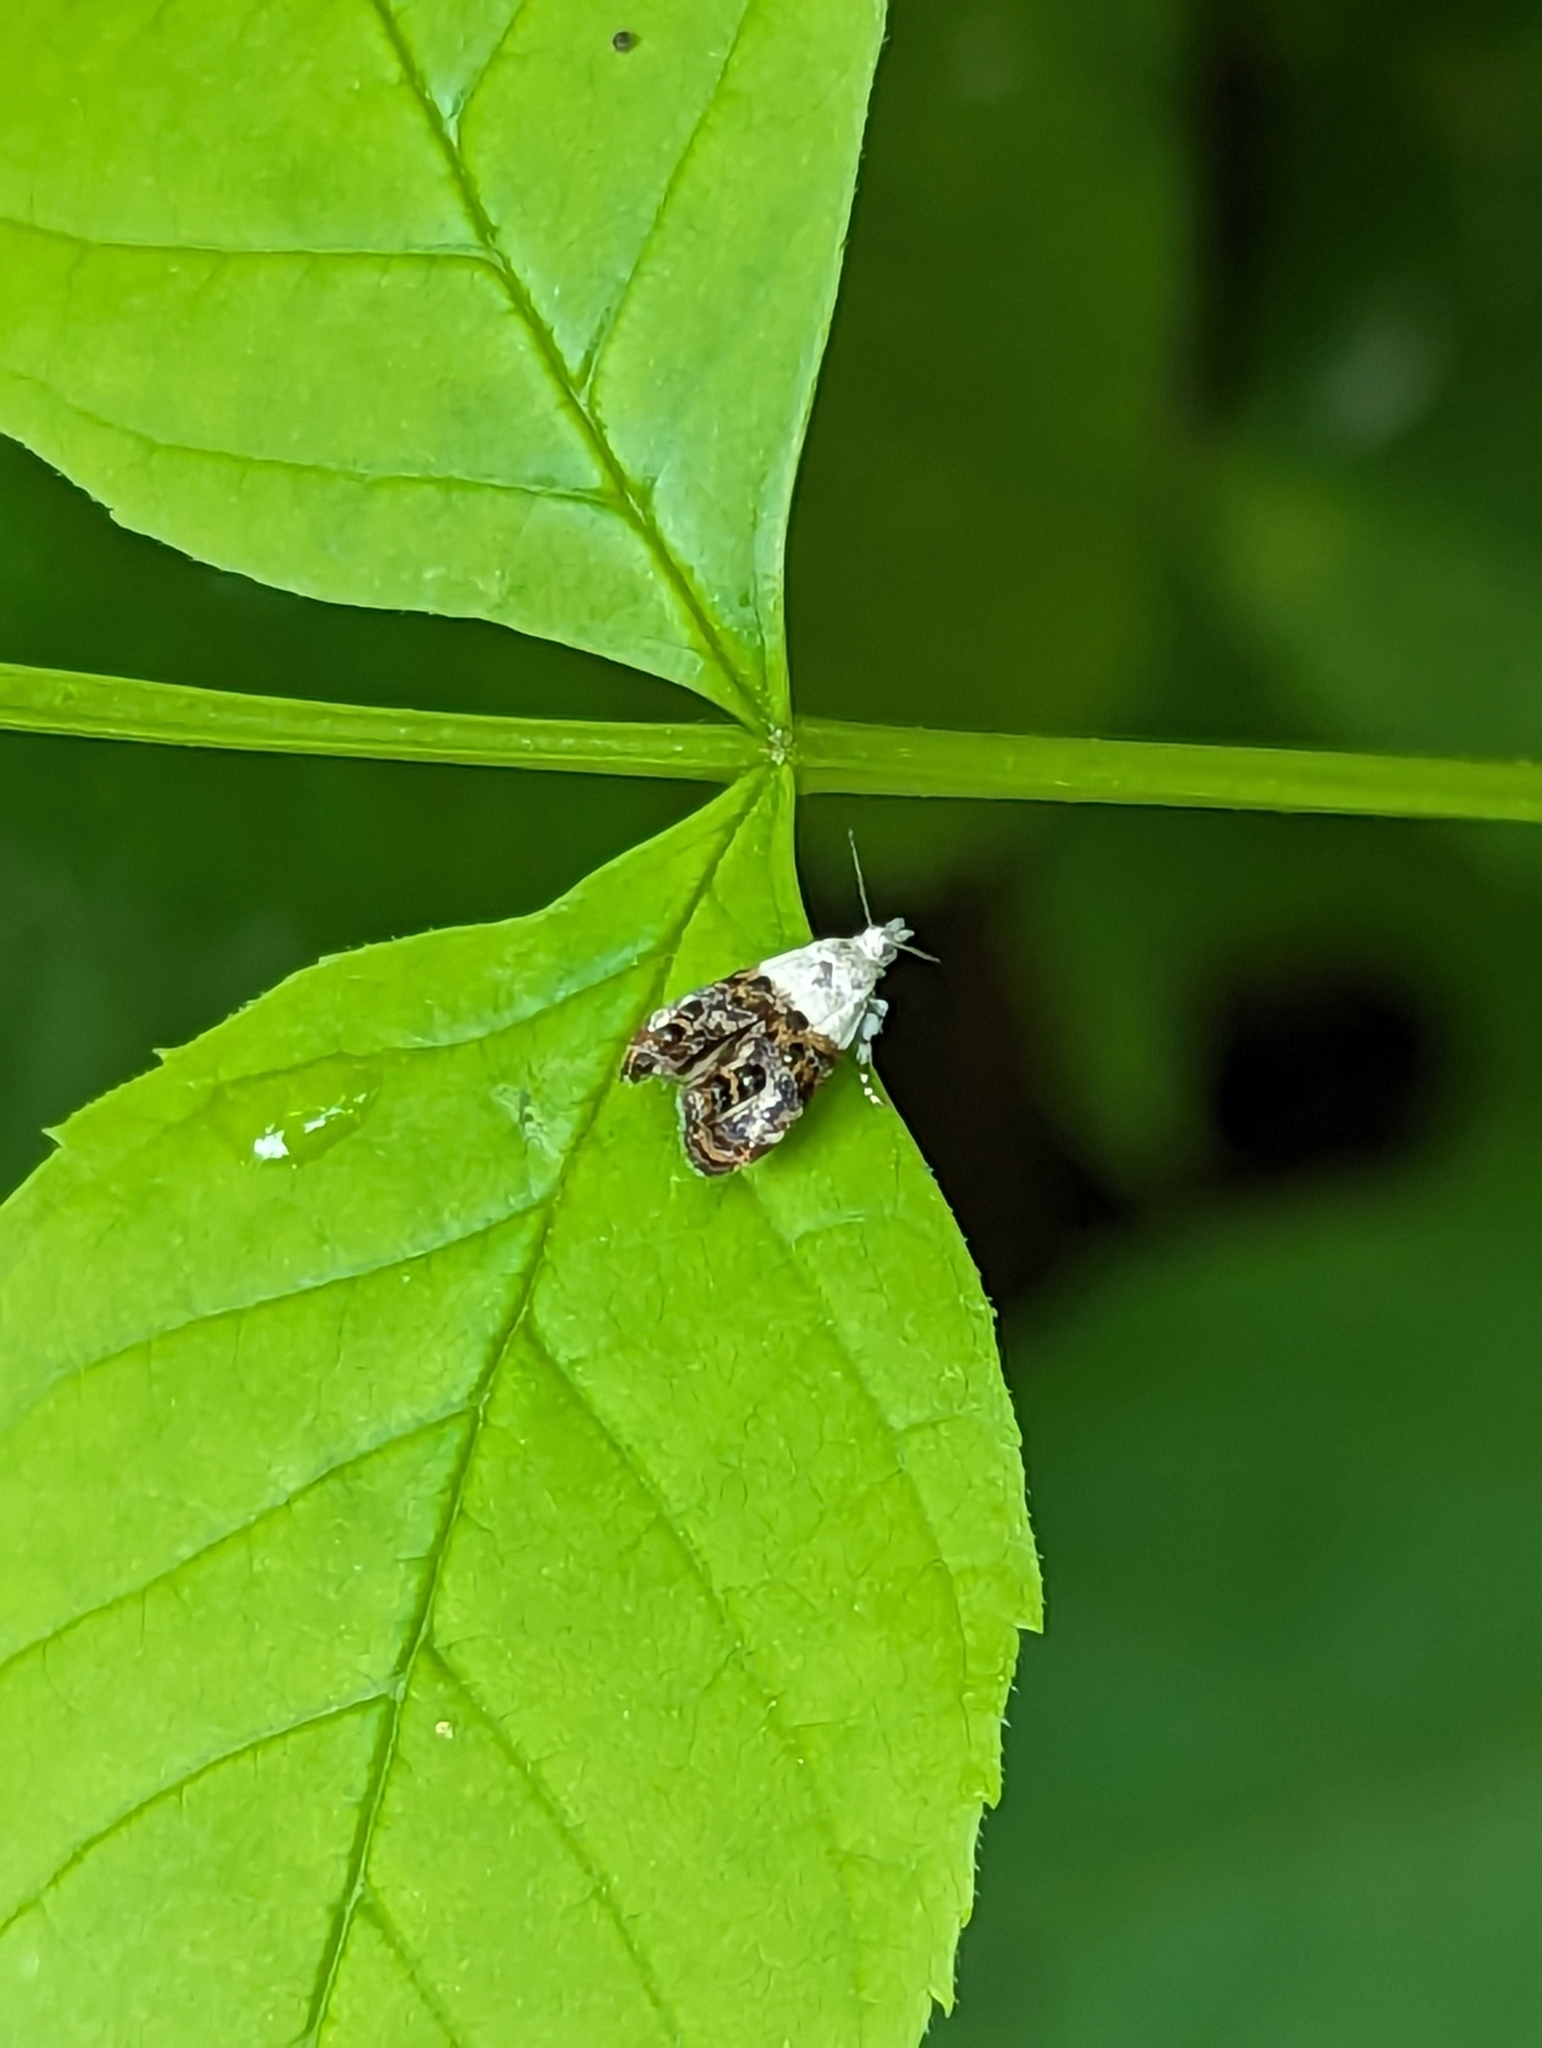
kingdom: Animalia
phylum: Arthropoda
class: Insecta
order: Lepidoptera
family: Choreutidae
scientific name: Choreutidae
